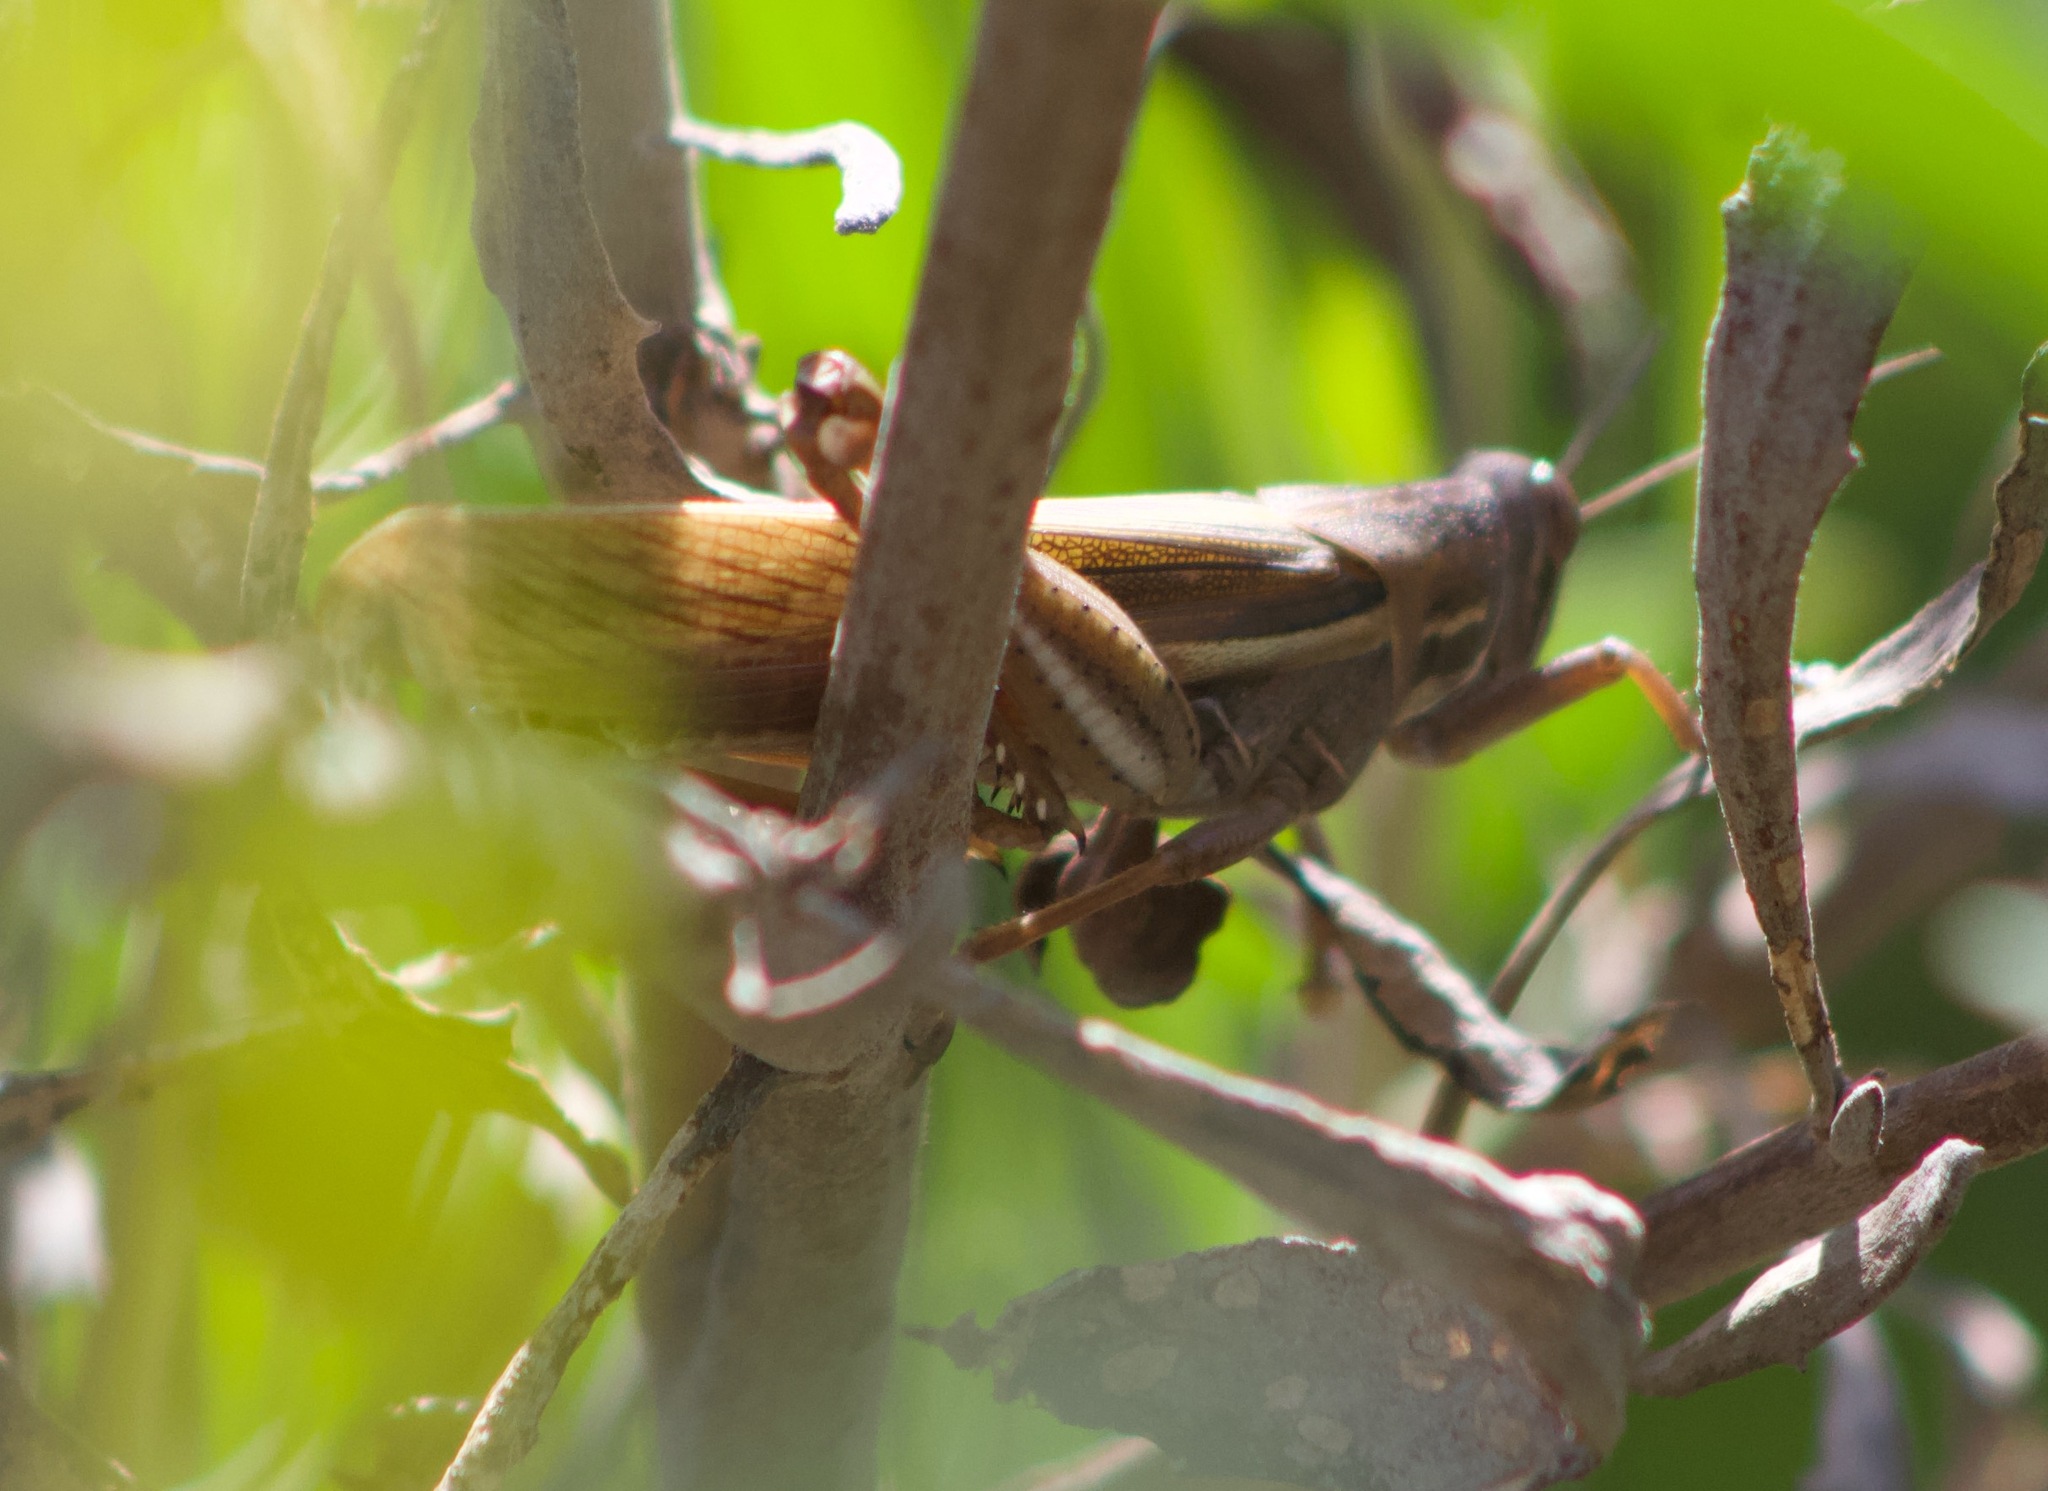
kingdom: Animalia
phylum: Arthropoda
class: Insecta
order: Orthoptera
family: Acrididae
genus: Schistocerca
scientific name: Schistocerca cancellata
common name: South american locust
